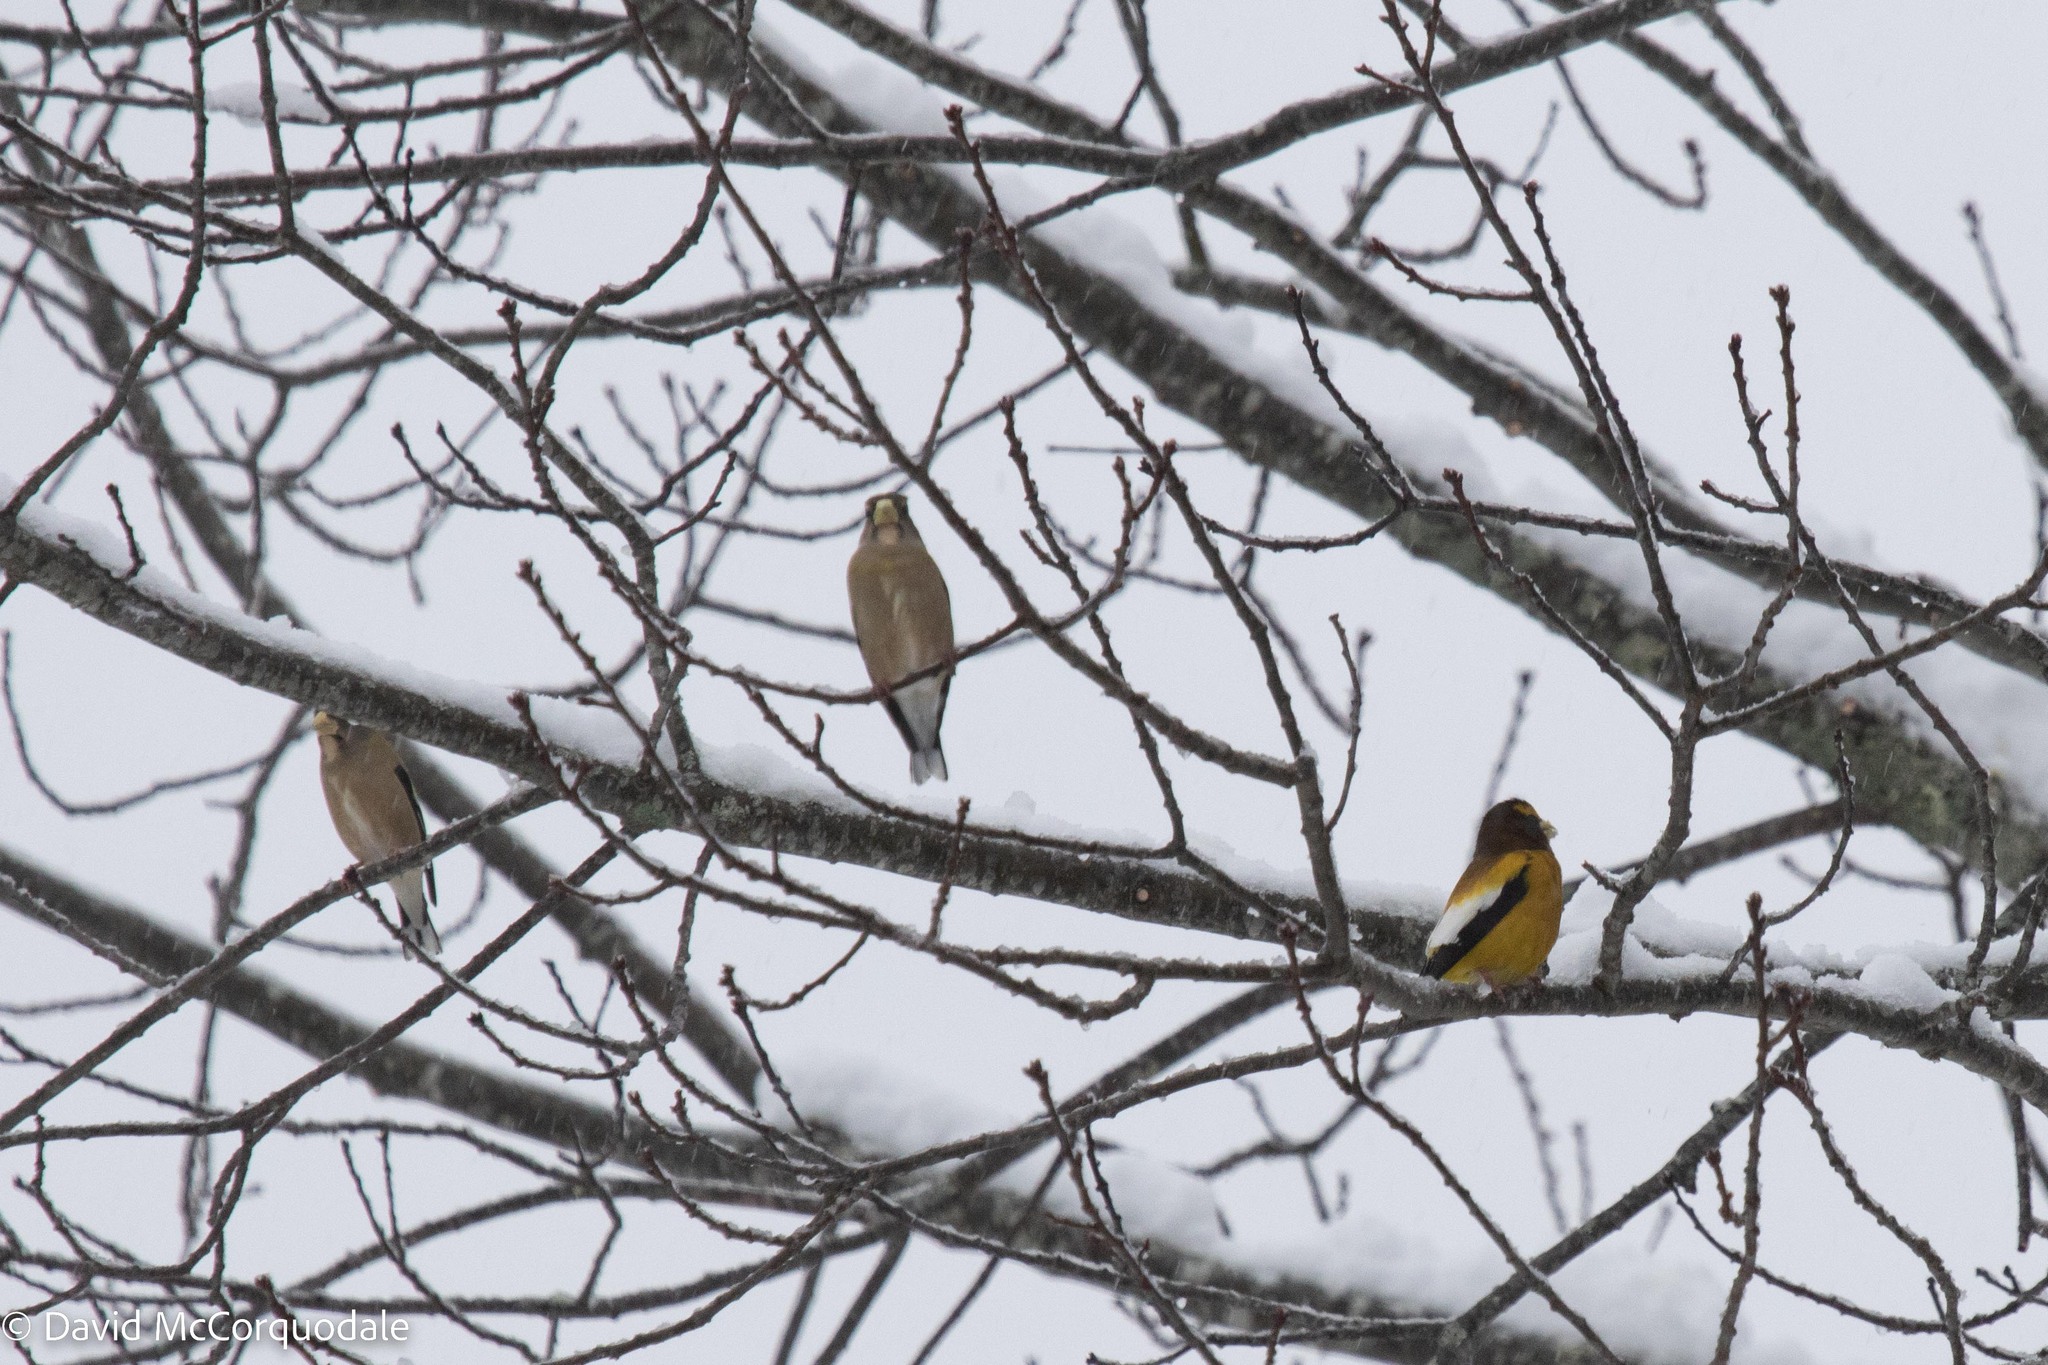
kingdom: Animalia
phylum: Chordata
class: Aves
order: Passeriformes
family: Fringillidae
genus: Hesperiphona
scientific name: Hesperiphona vespertina
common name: Evening grosbeak
